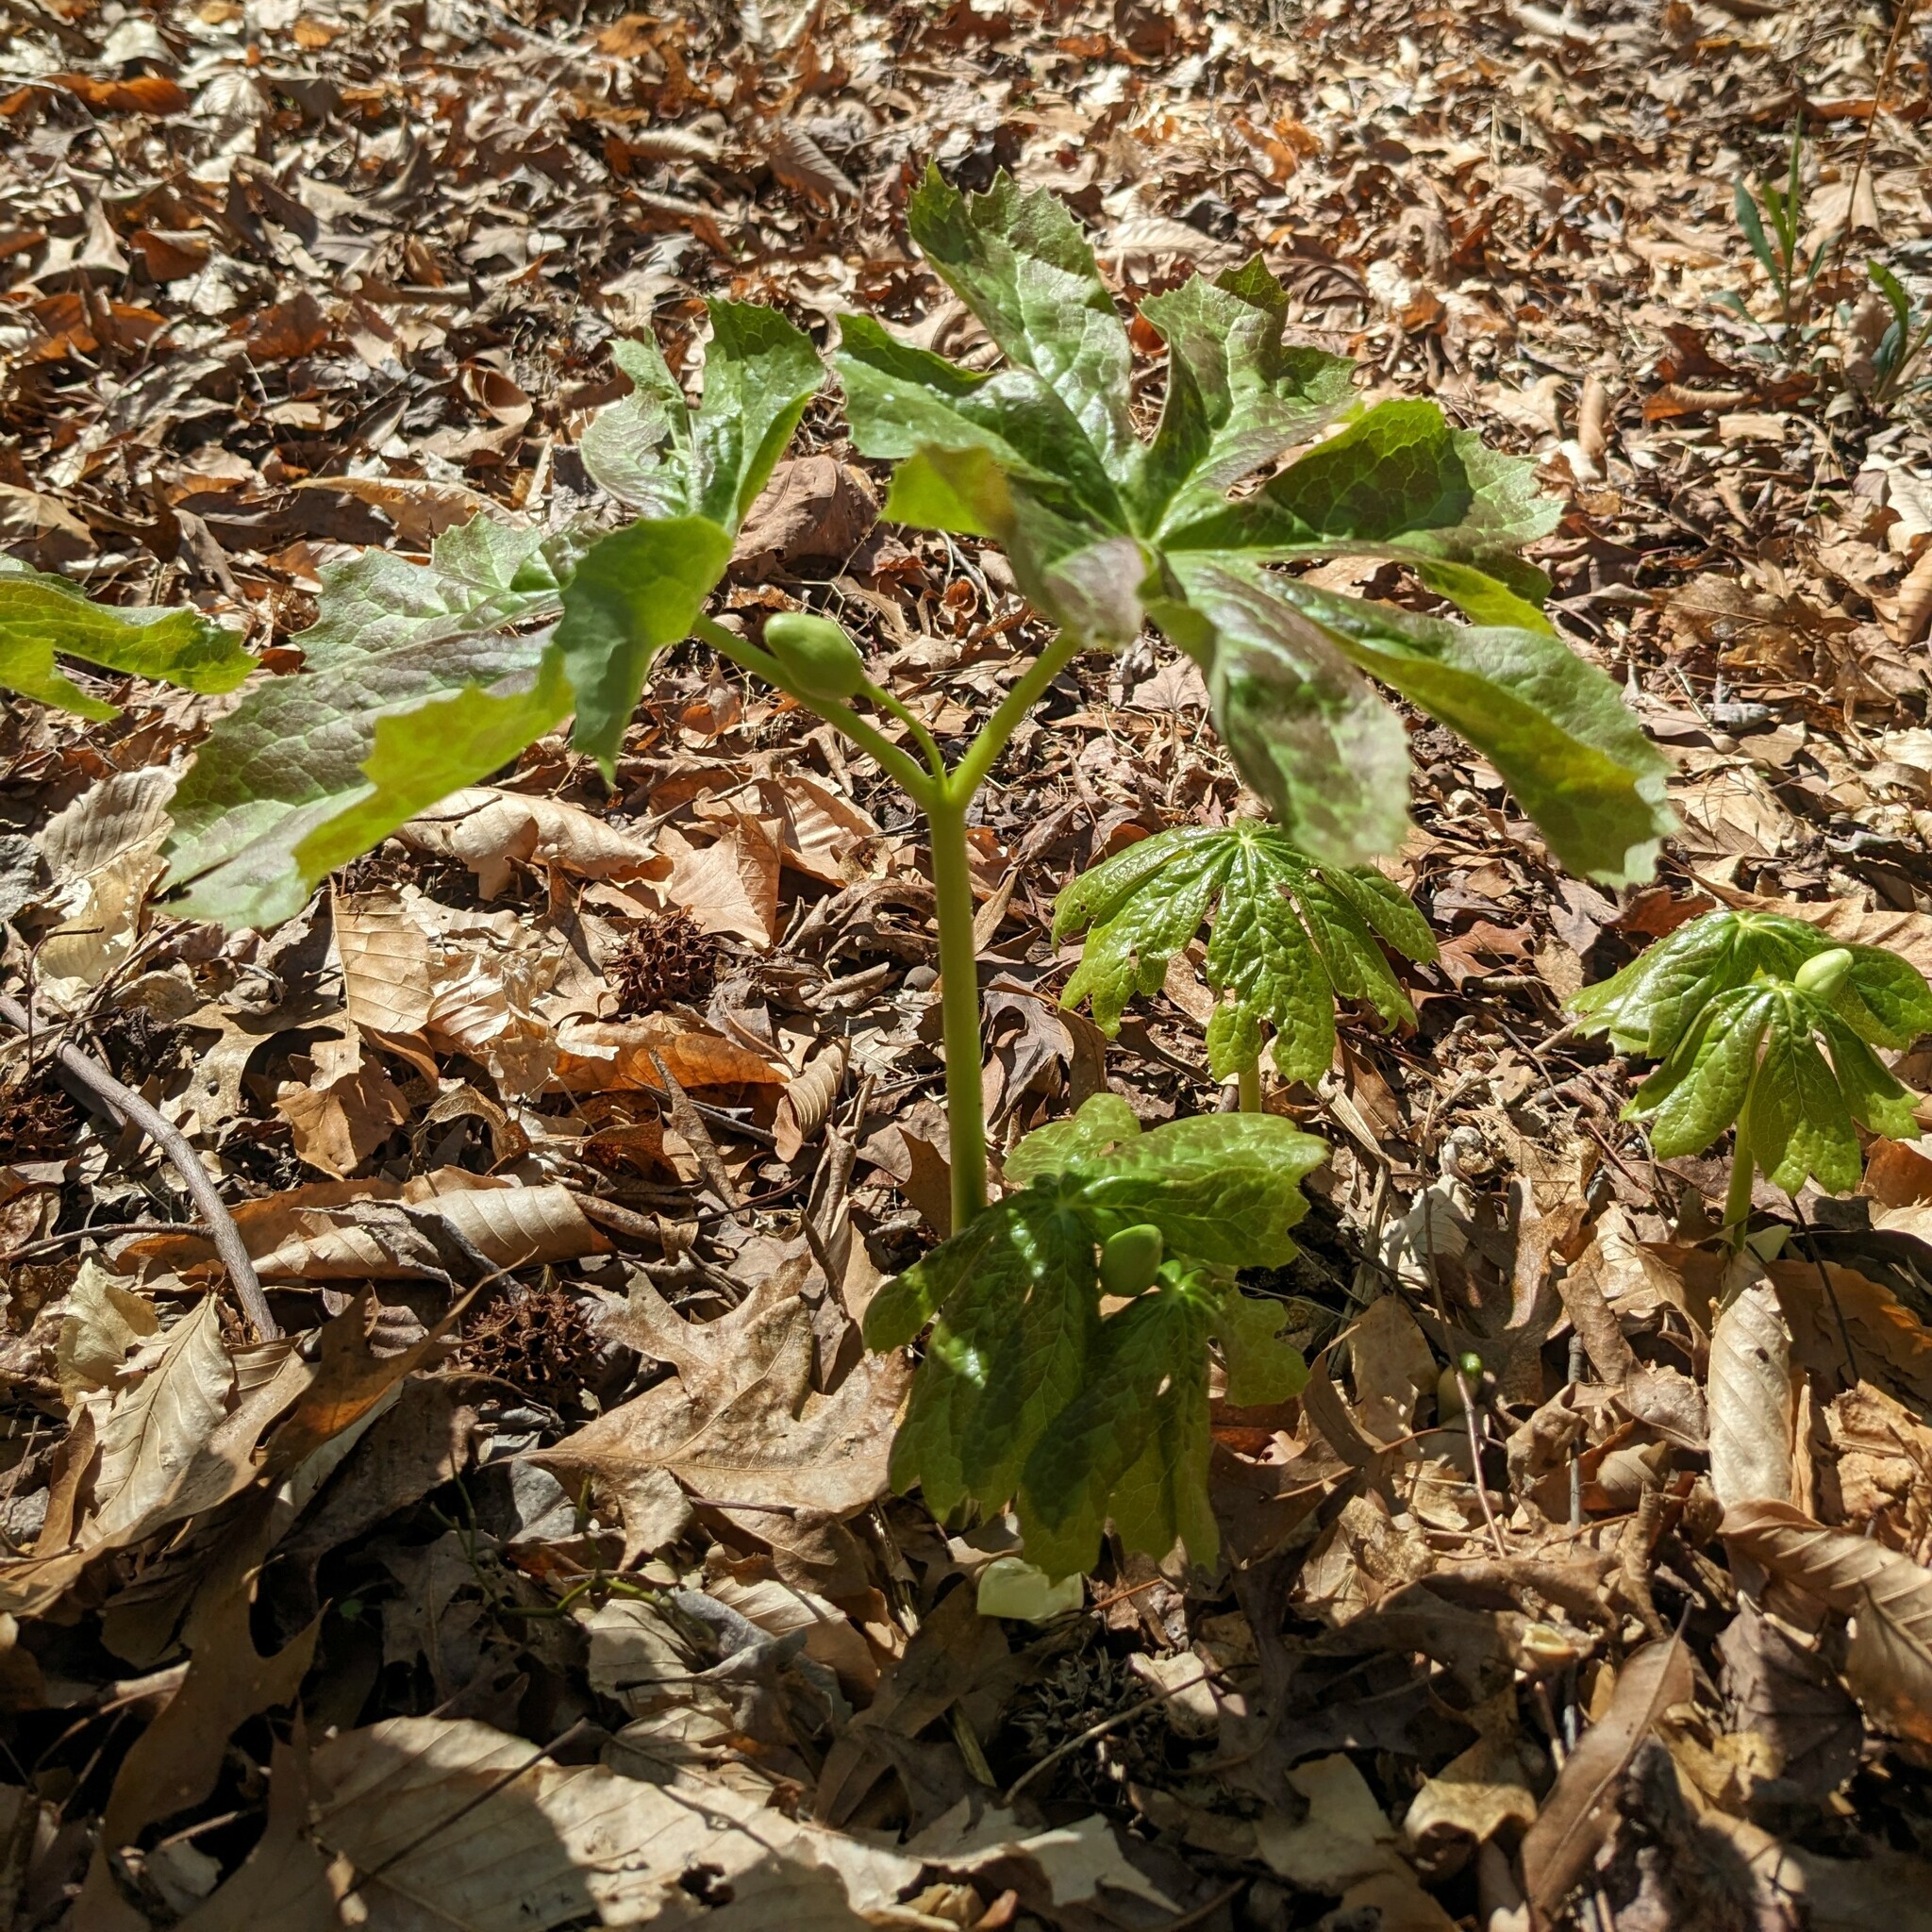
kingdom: Plantae
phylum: Tracheophyta
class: Magnoliopsida
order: Ranunculales
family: Berberidaceae
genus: Podophyllum
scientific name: Podophyllum peltatum
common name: Wild mandrake
